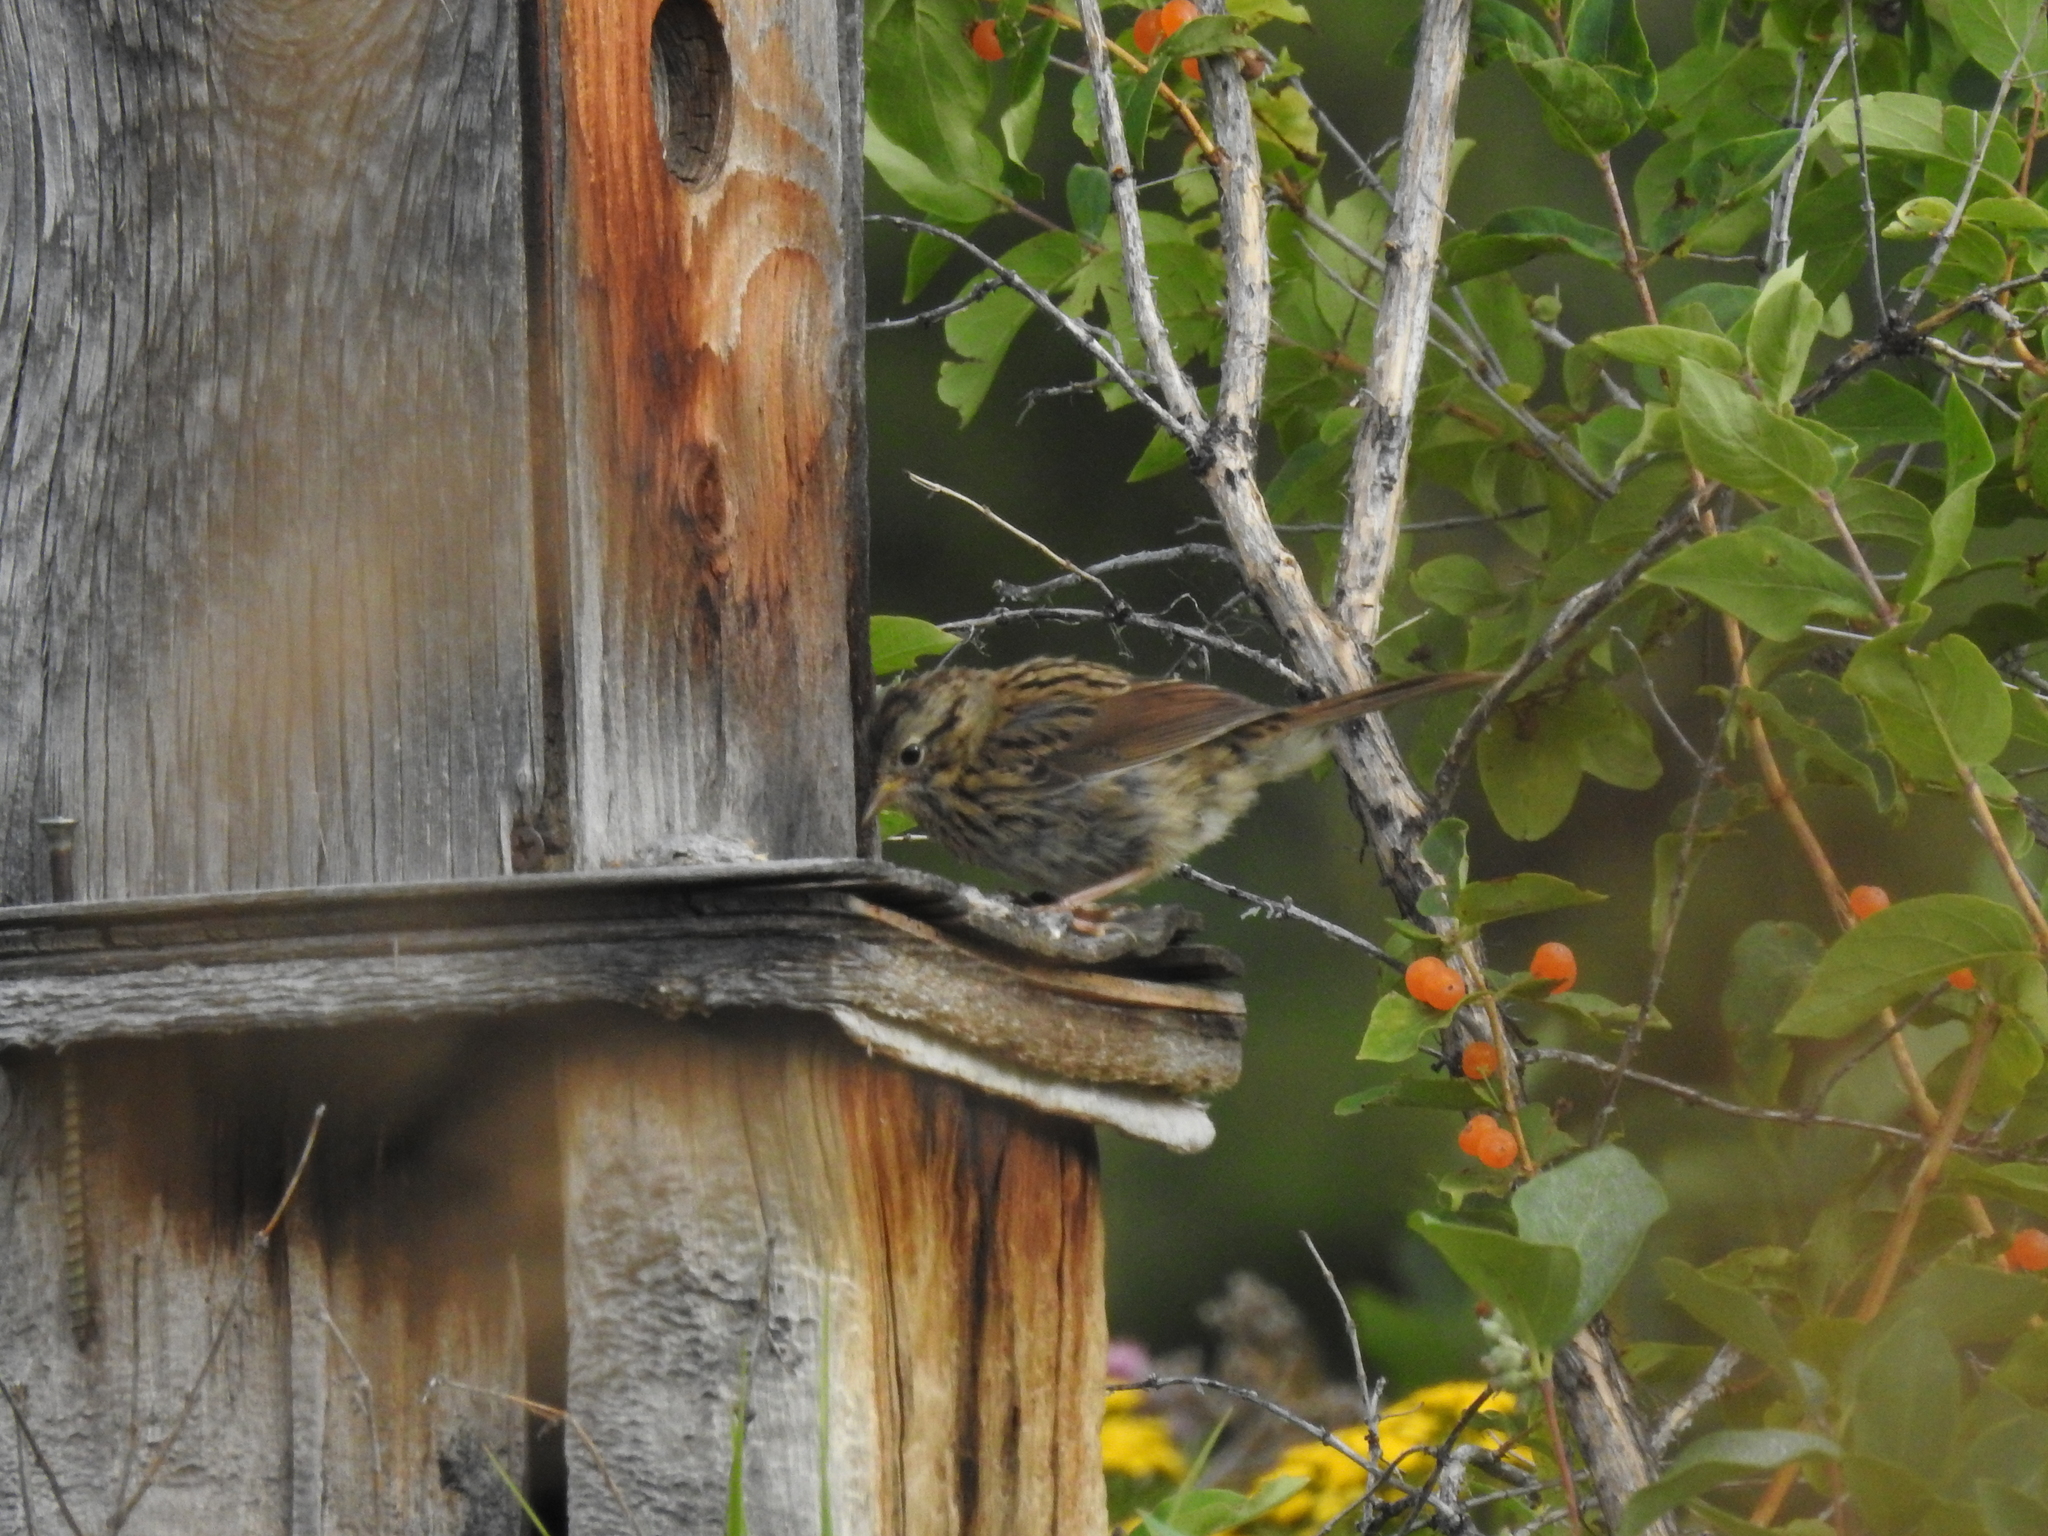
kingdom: Animalia
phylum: Chordata
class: Aves
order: Passeriformes
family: Passerellidae
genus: Melospiza
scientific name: Melospiza lincolnii
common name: Lincoln's sparrow
